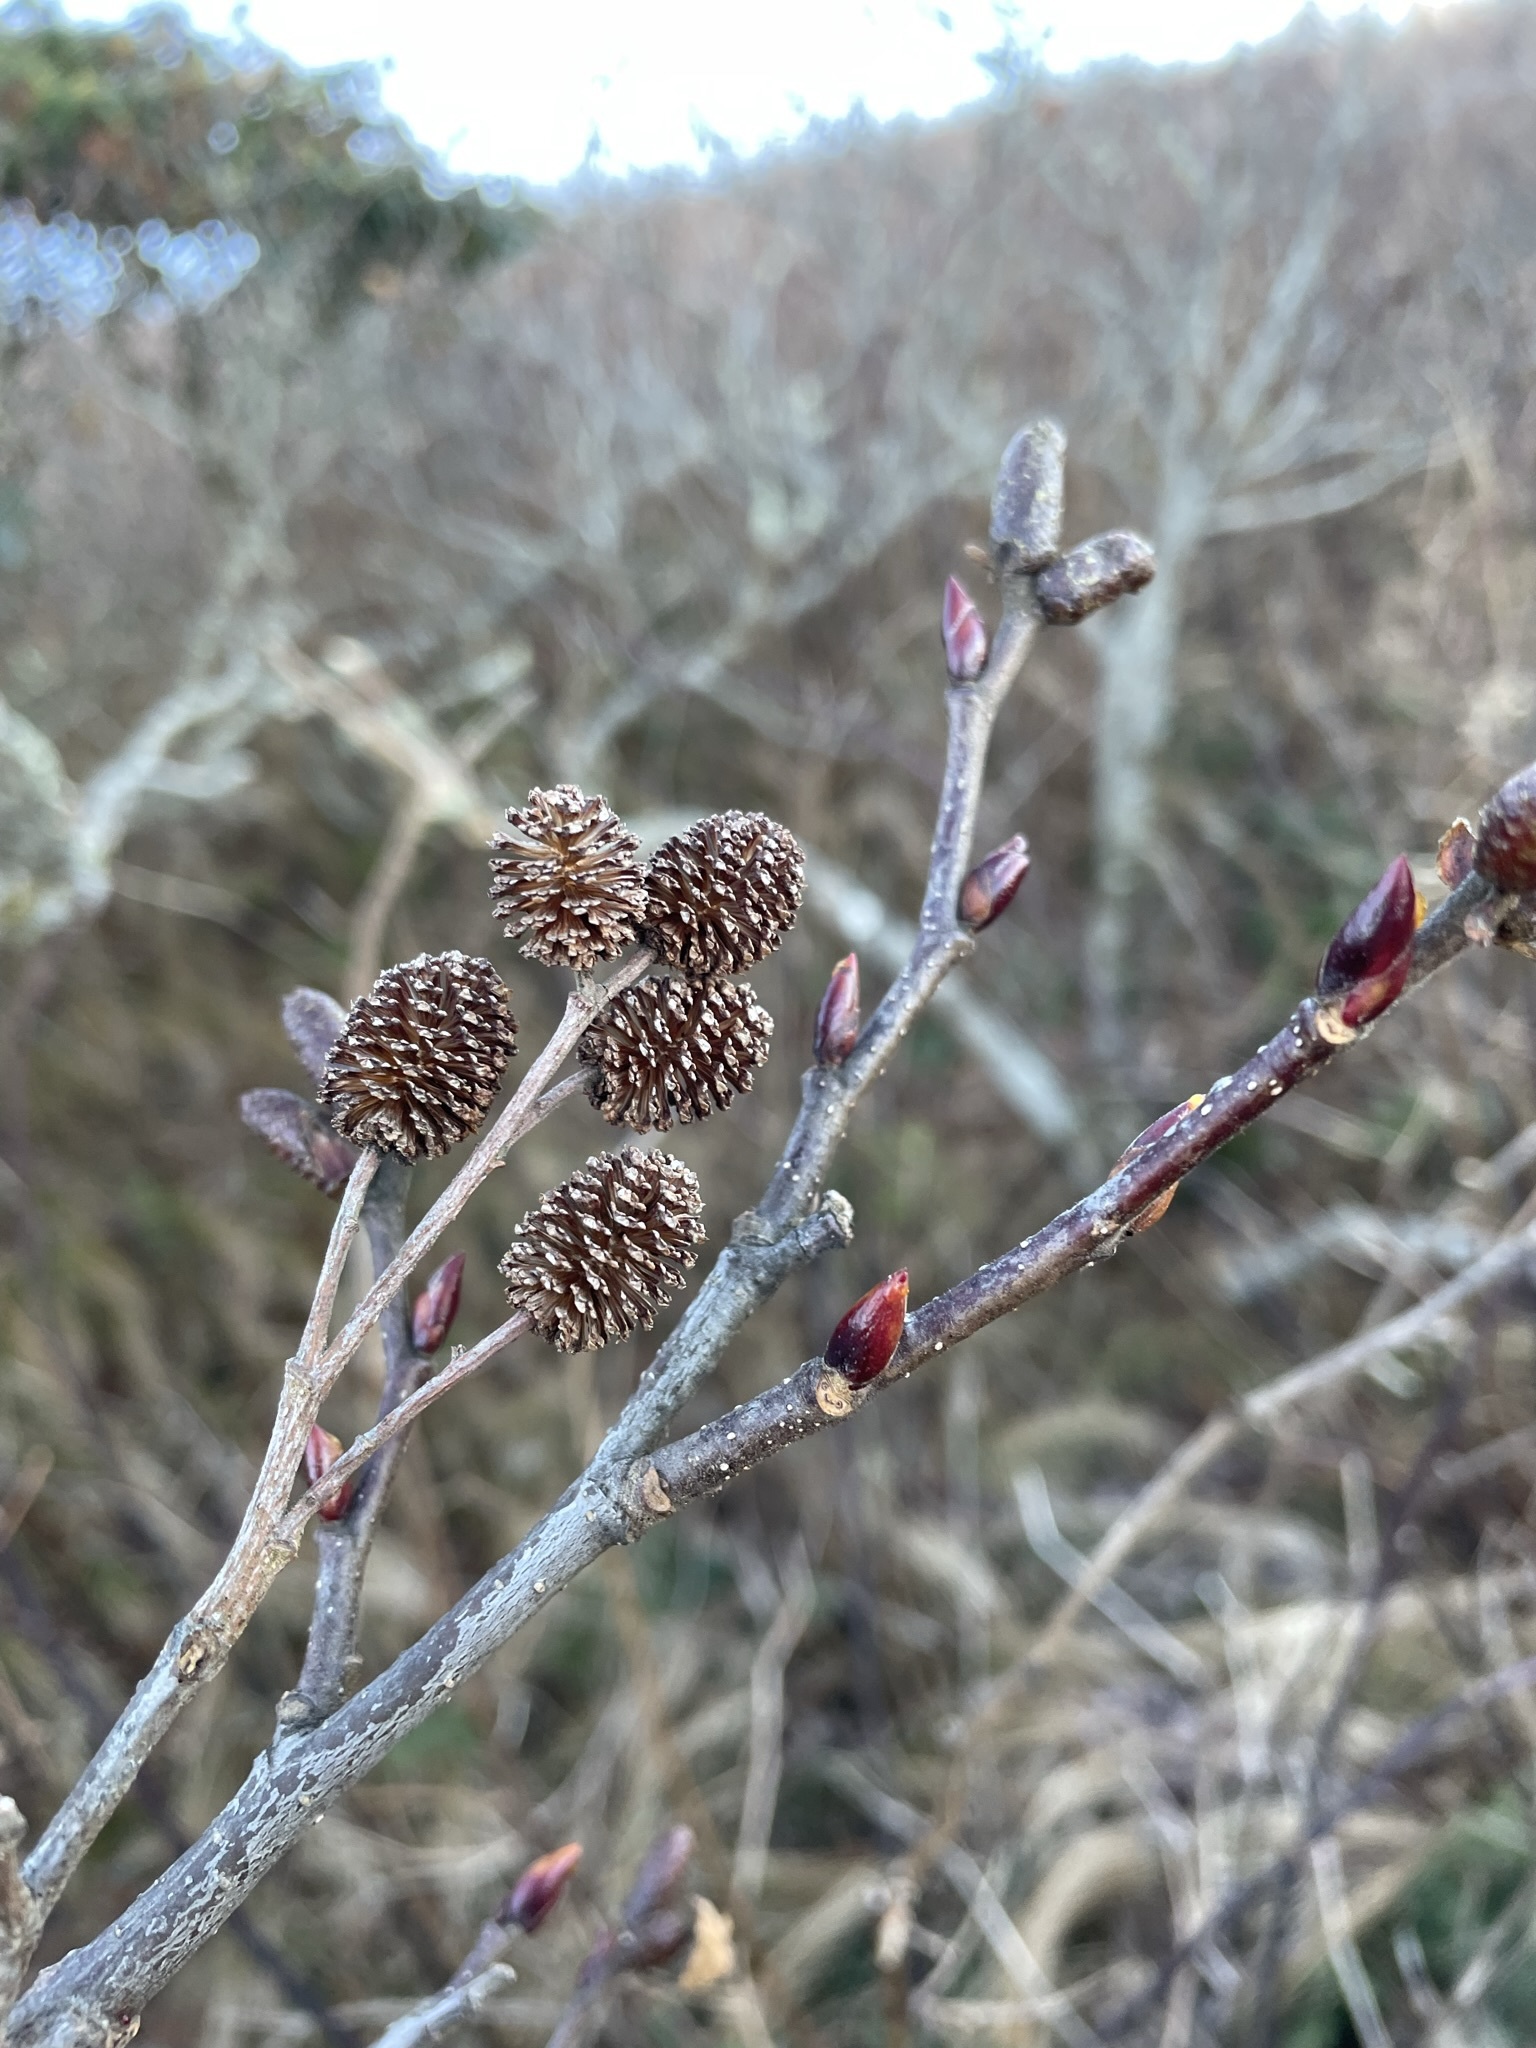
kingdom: Plantae
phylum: Tracheophyta
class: Magnoliopsida
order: Fagales
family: Betulaceae
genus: Alnus
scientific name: Alnus alnobetula
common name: Green alder
